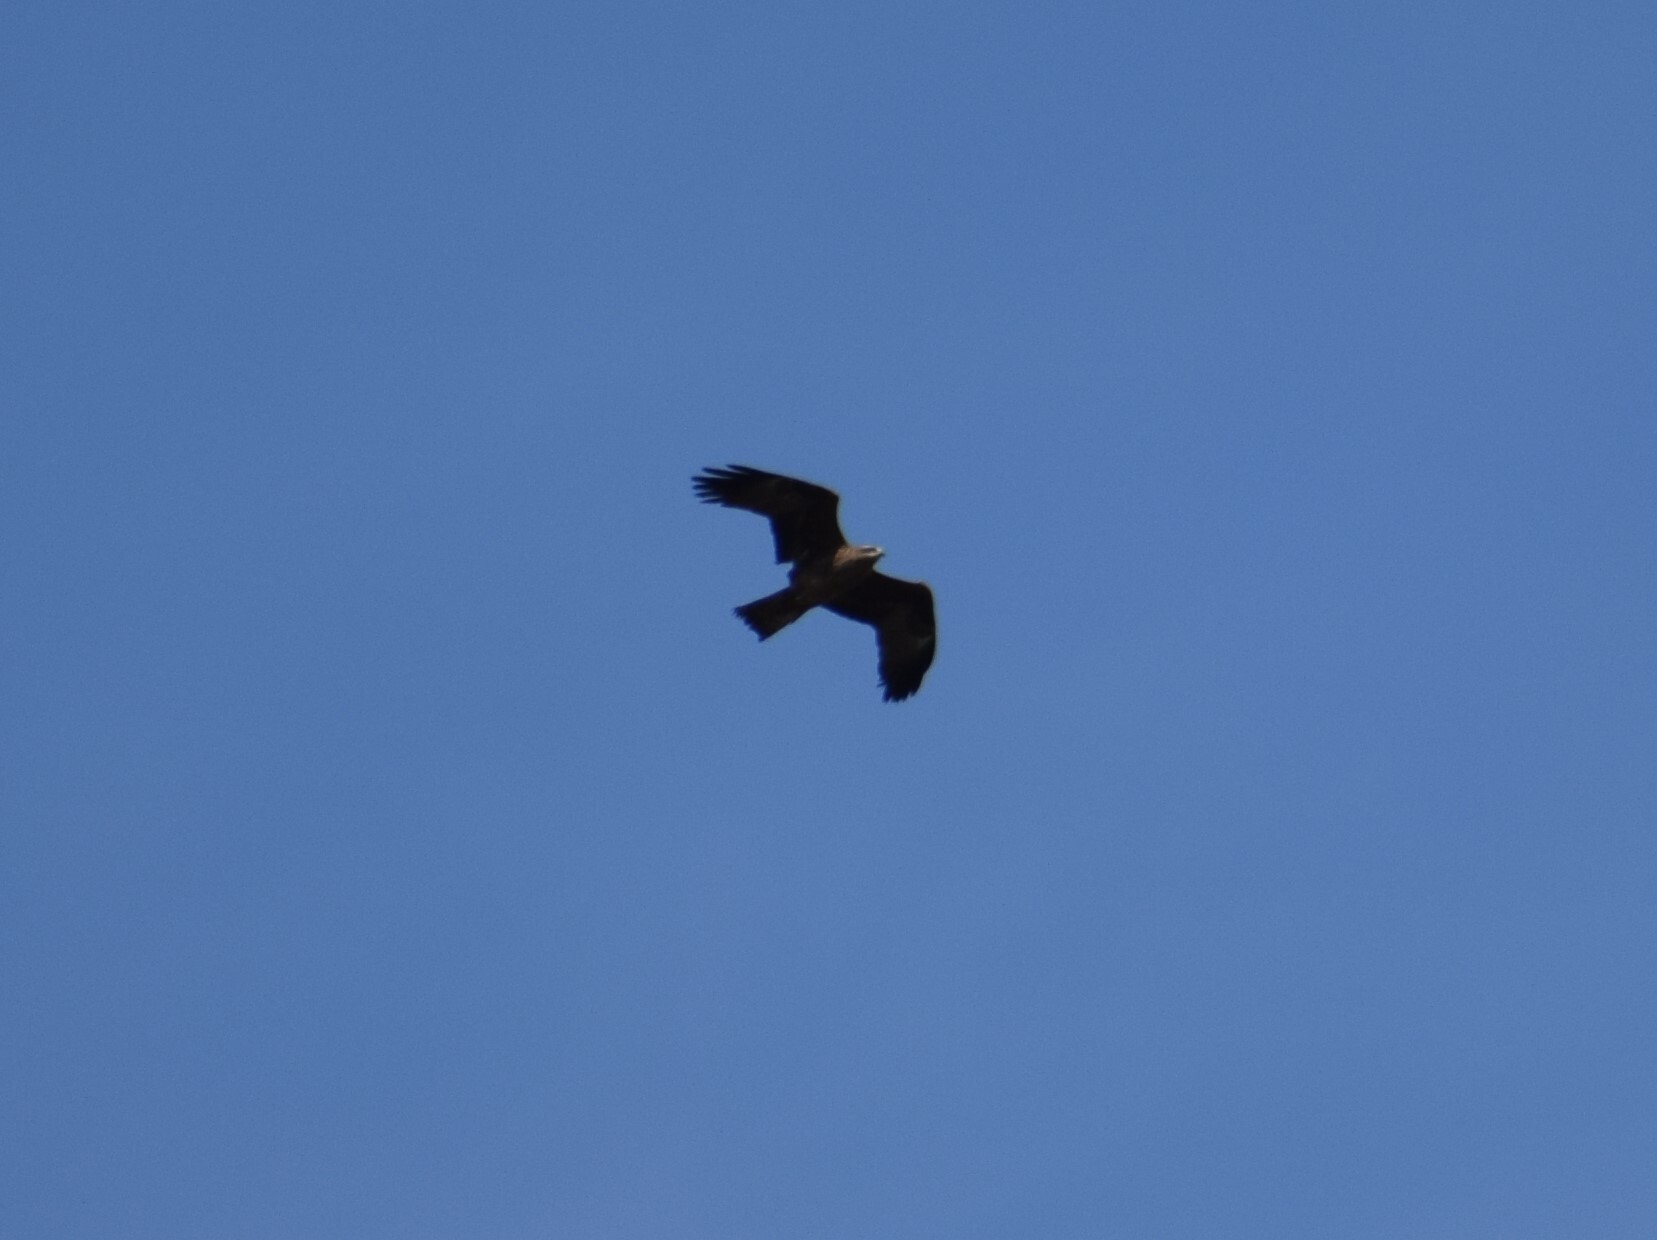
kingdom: Animalia
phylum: Chordata
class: Aves
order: Accipitriformes
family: Accipitridae
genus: Milvus
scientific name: Milvus migrans
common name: Black kite
